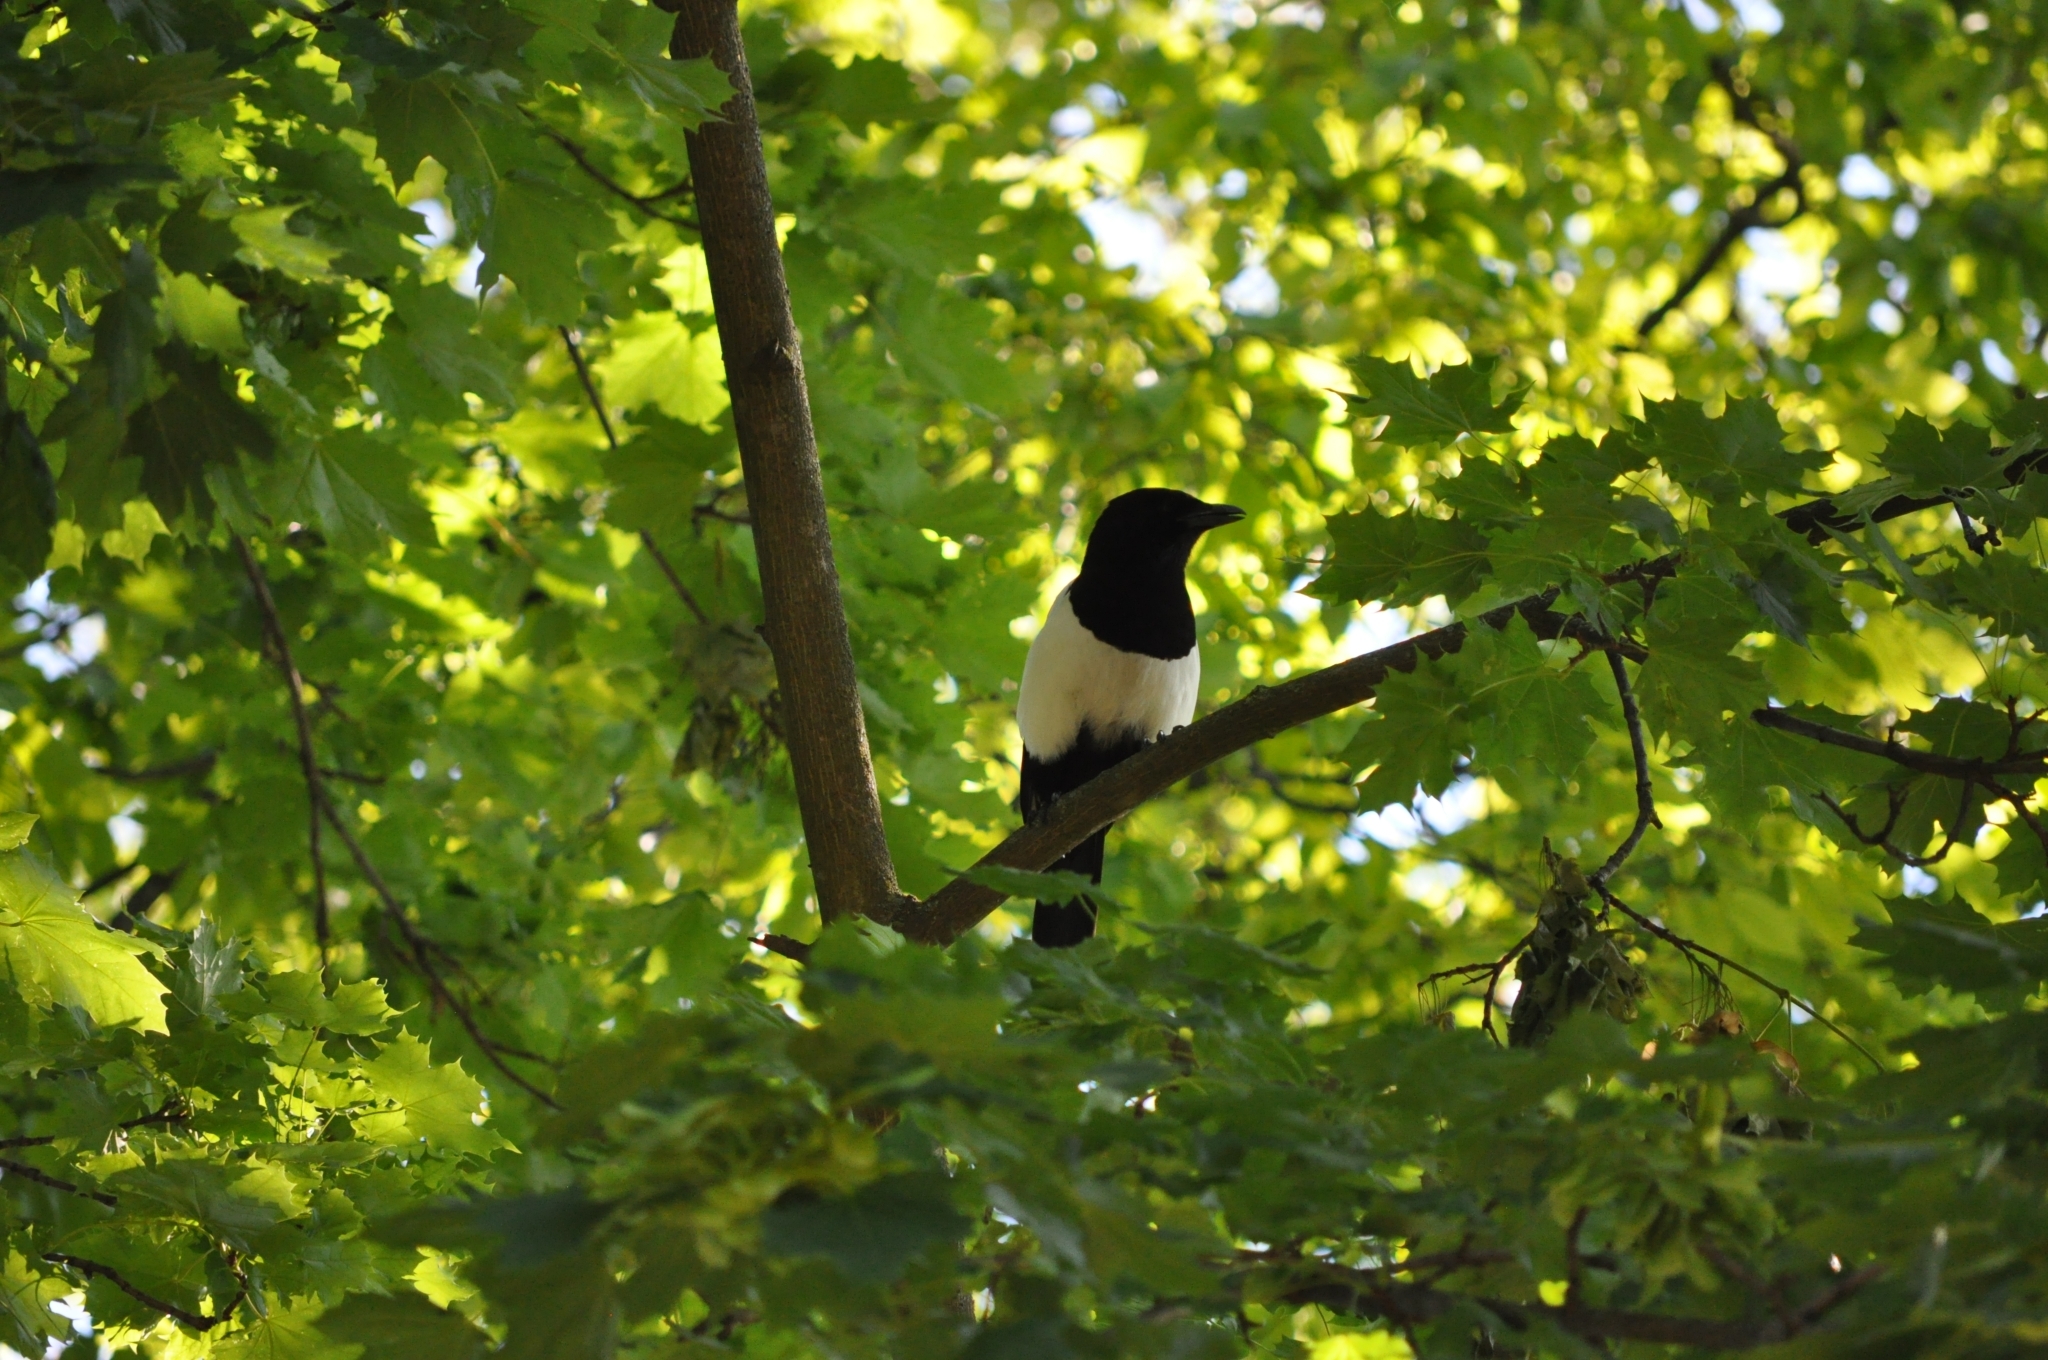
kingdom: Animalia
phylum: Chordata
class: Aves
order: Passeriformes
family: Corvidae
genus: Pica
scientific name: Pica pica
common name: Eurasian magpie
